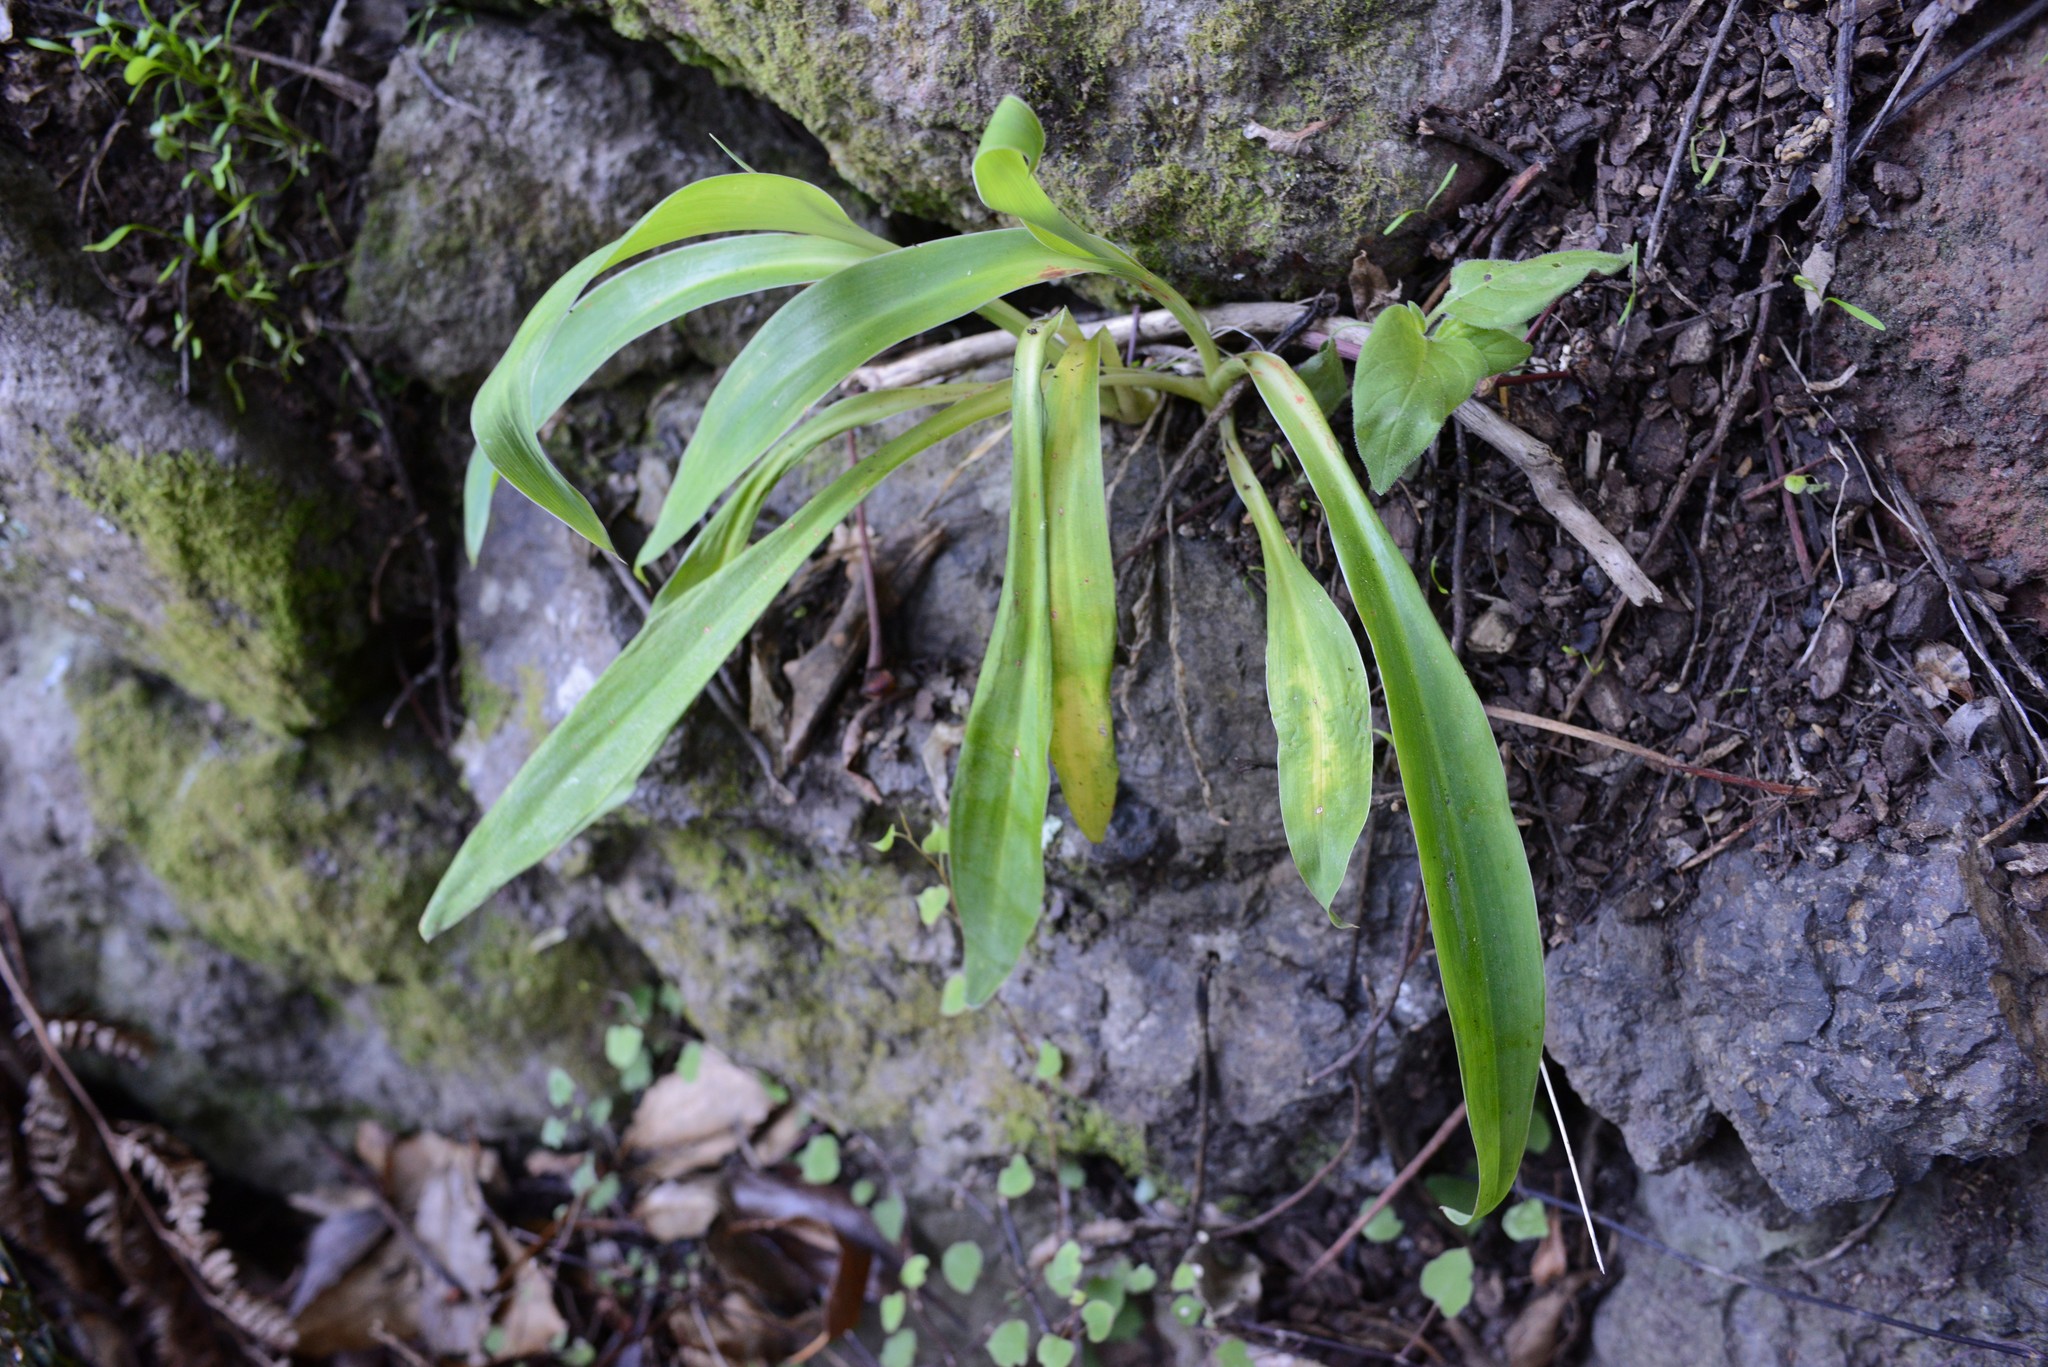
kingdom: Plantae
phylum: Tracheophyta
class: Liliopsida
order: Asparagales
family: Asparagaceae
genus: Arthropodium
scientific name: Arthropodium cirratum
